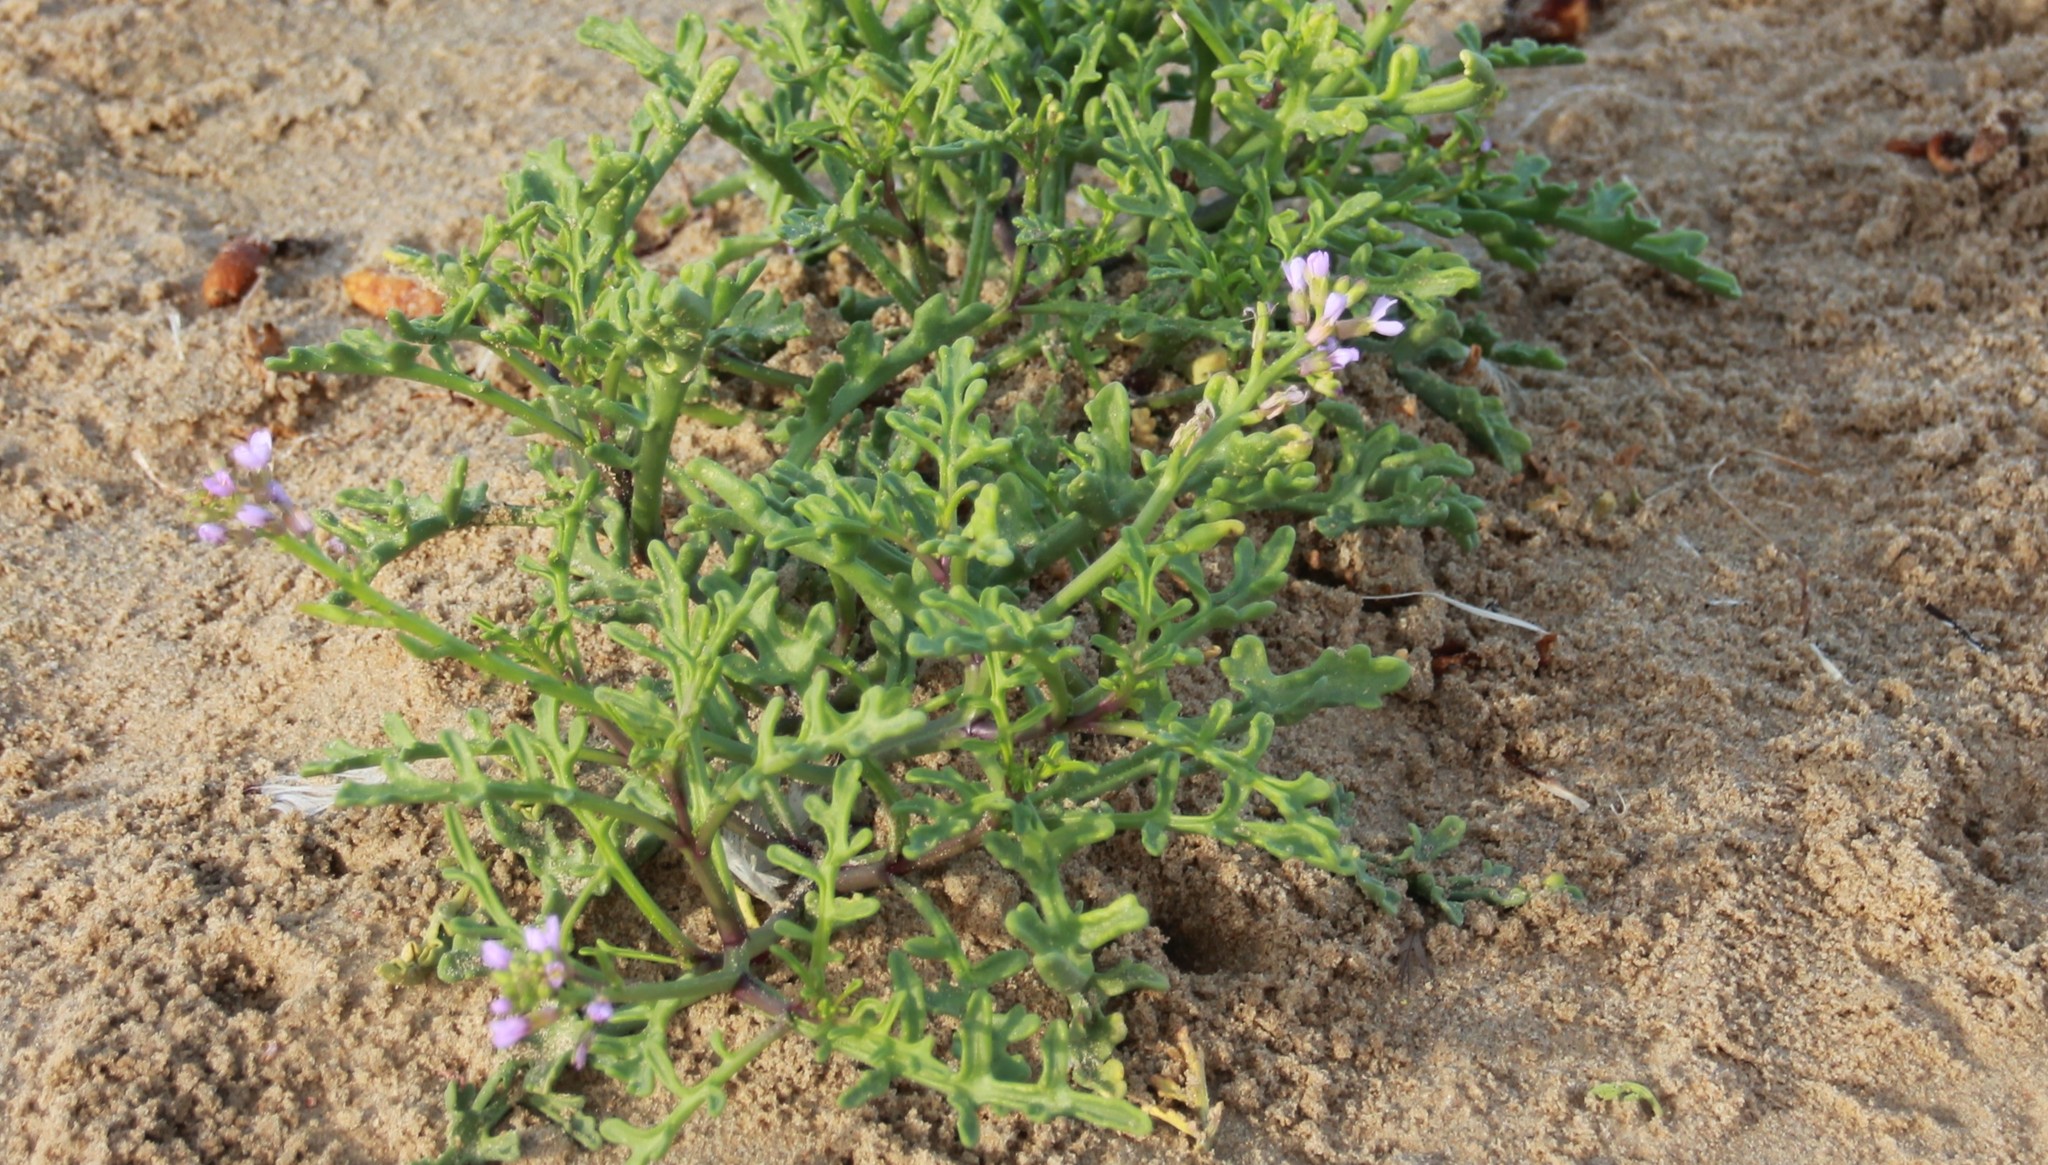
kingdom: Plantae
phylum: Tracheophyta
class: Magnoliopsida
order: Brassicales
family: Brassicaceae
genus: Cakile
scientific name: Cakile maritima
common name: Sea rocket
